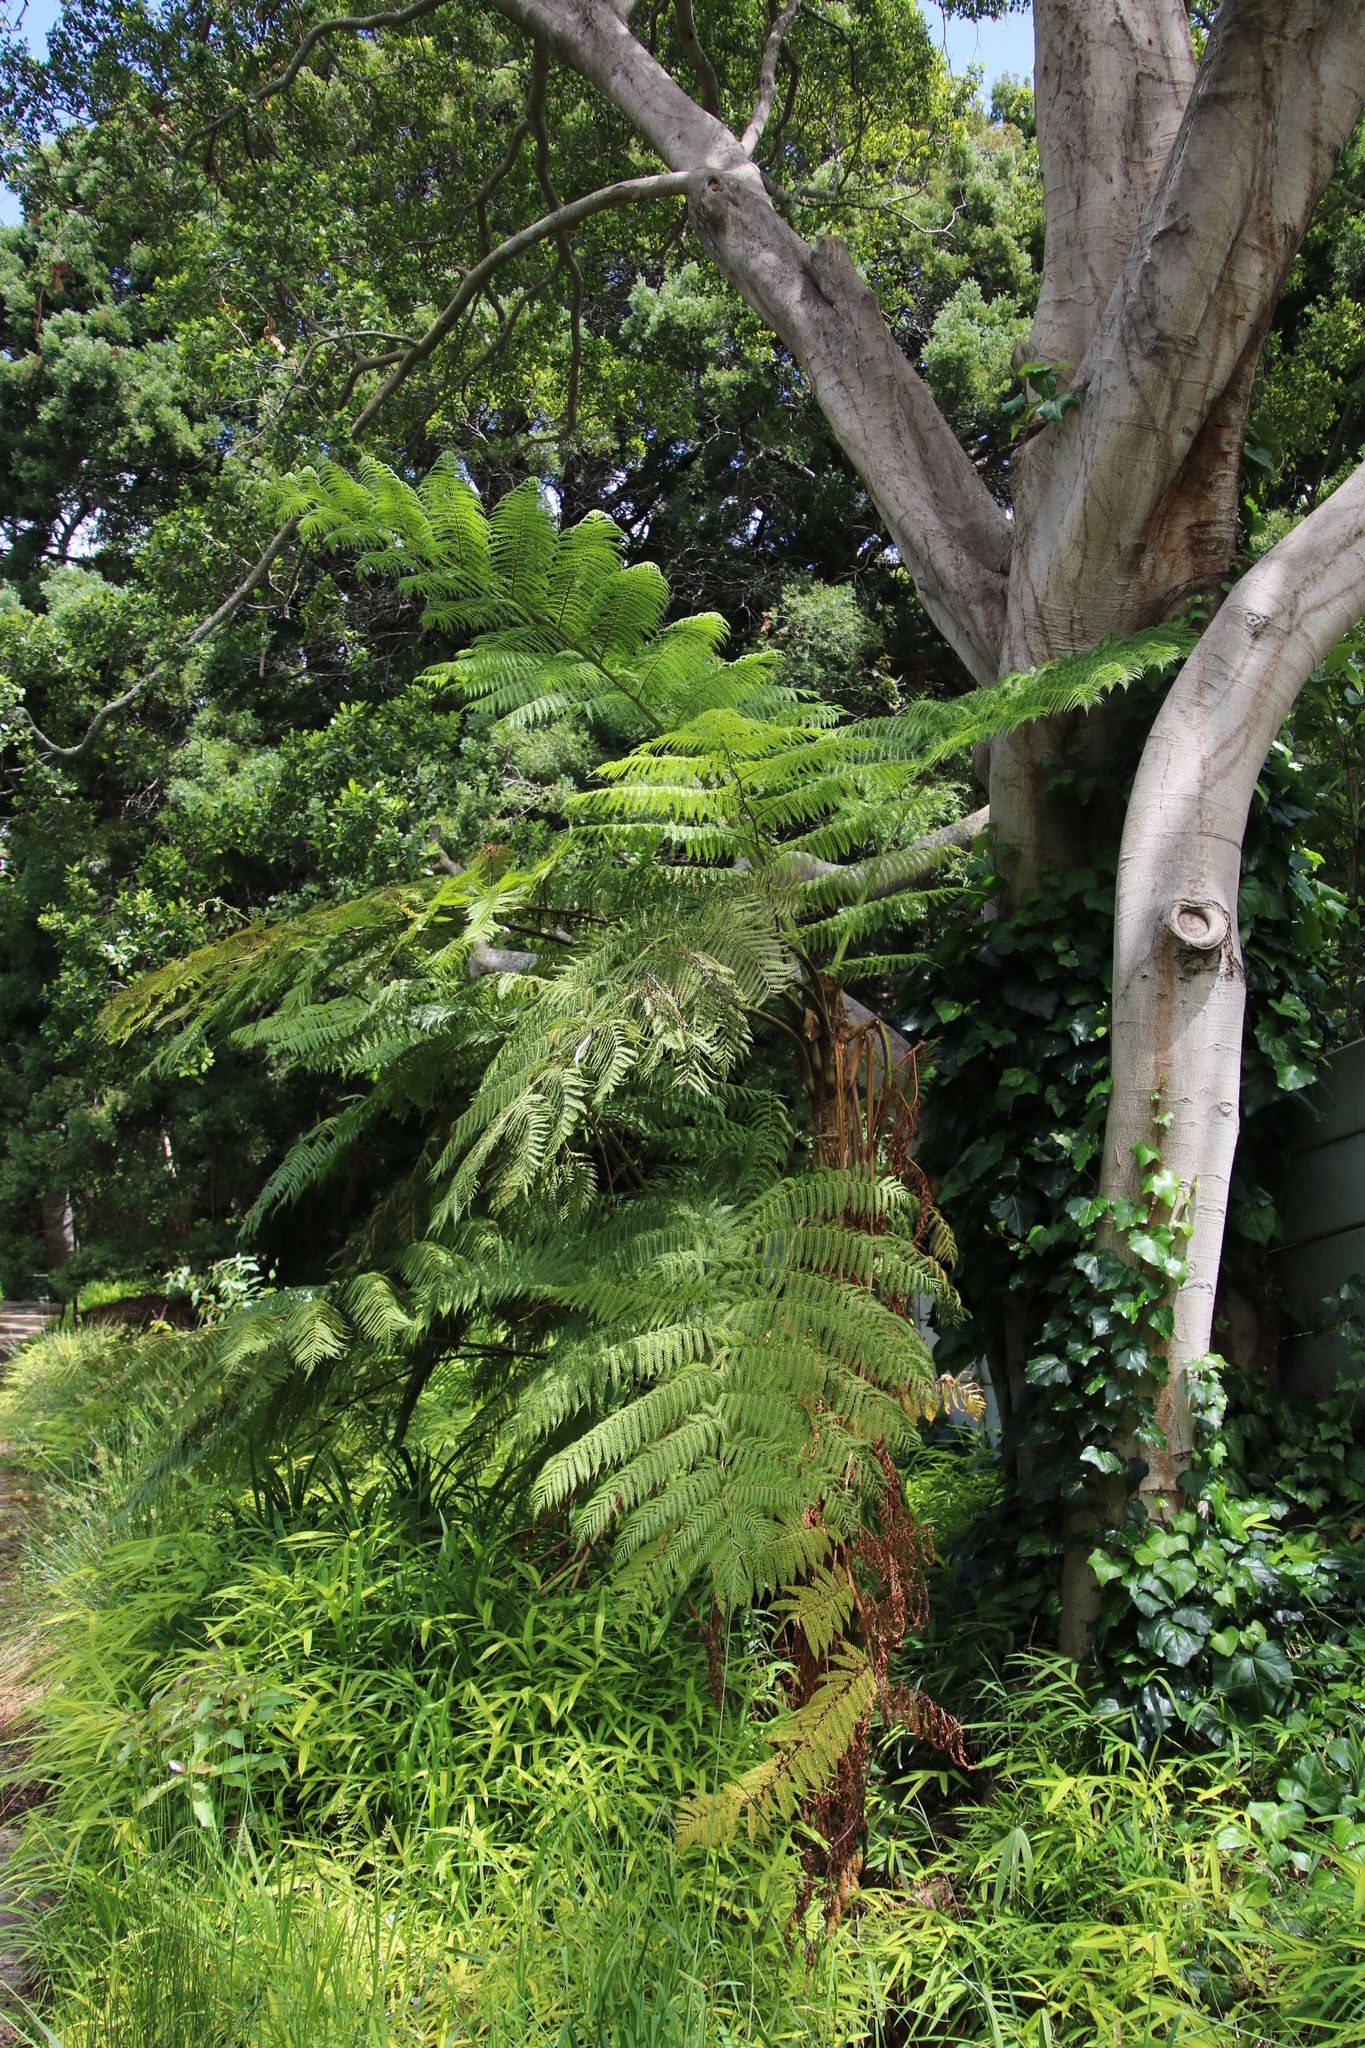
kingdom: Plantae
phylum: Tracheophyta
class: Polypodiopsida
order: Cyatheales
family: Cyatheaceae
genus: Sphaeropteris
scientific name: Sphaeropteris cooperi
